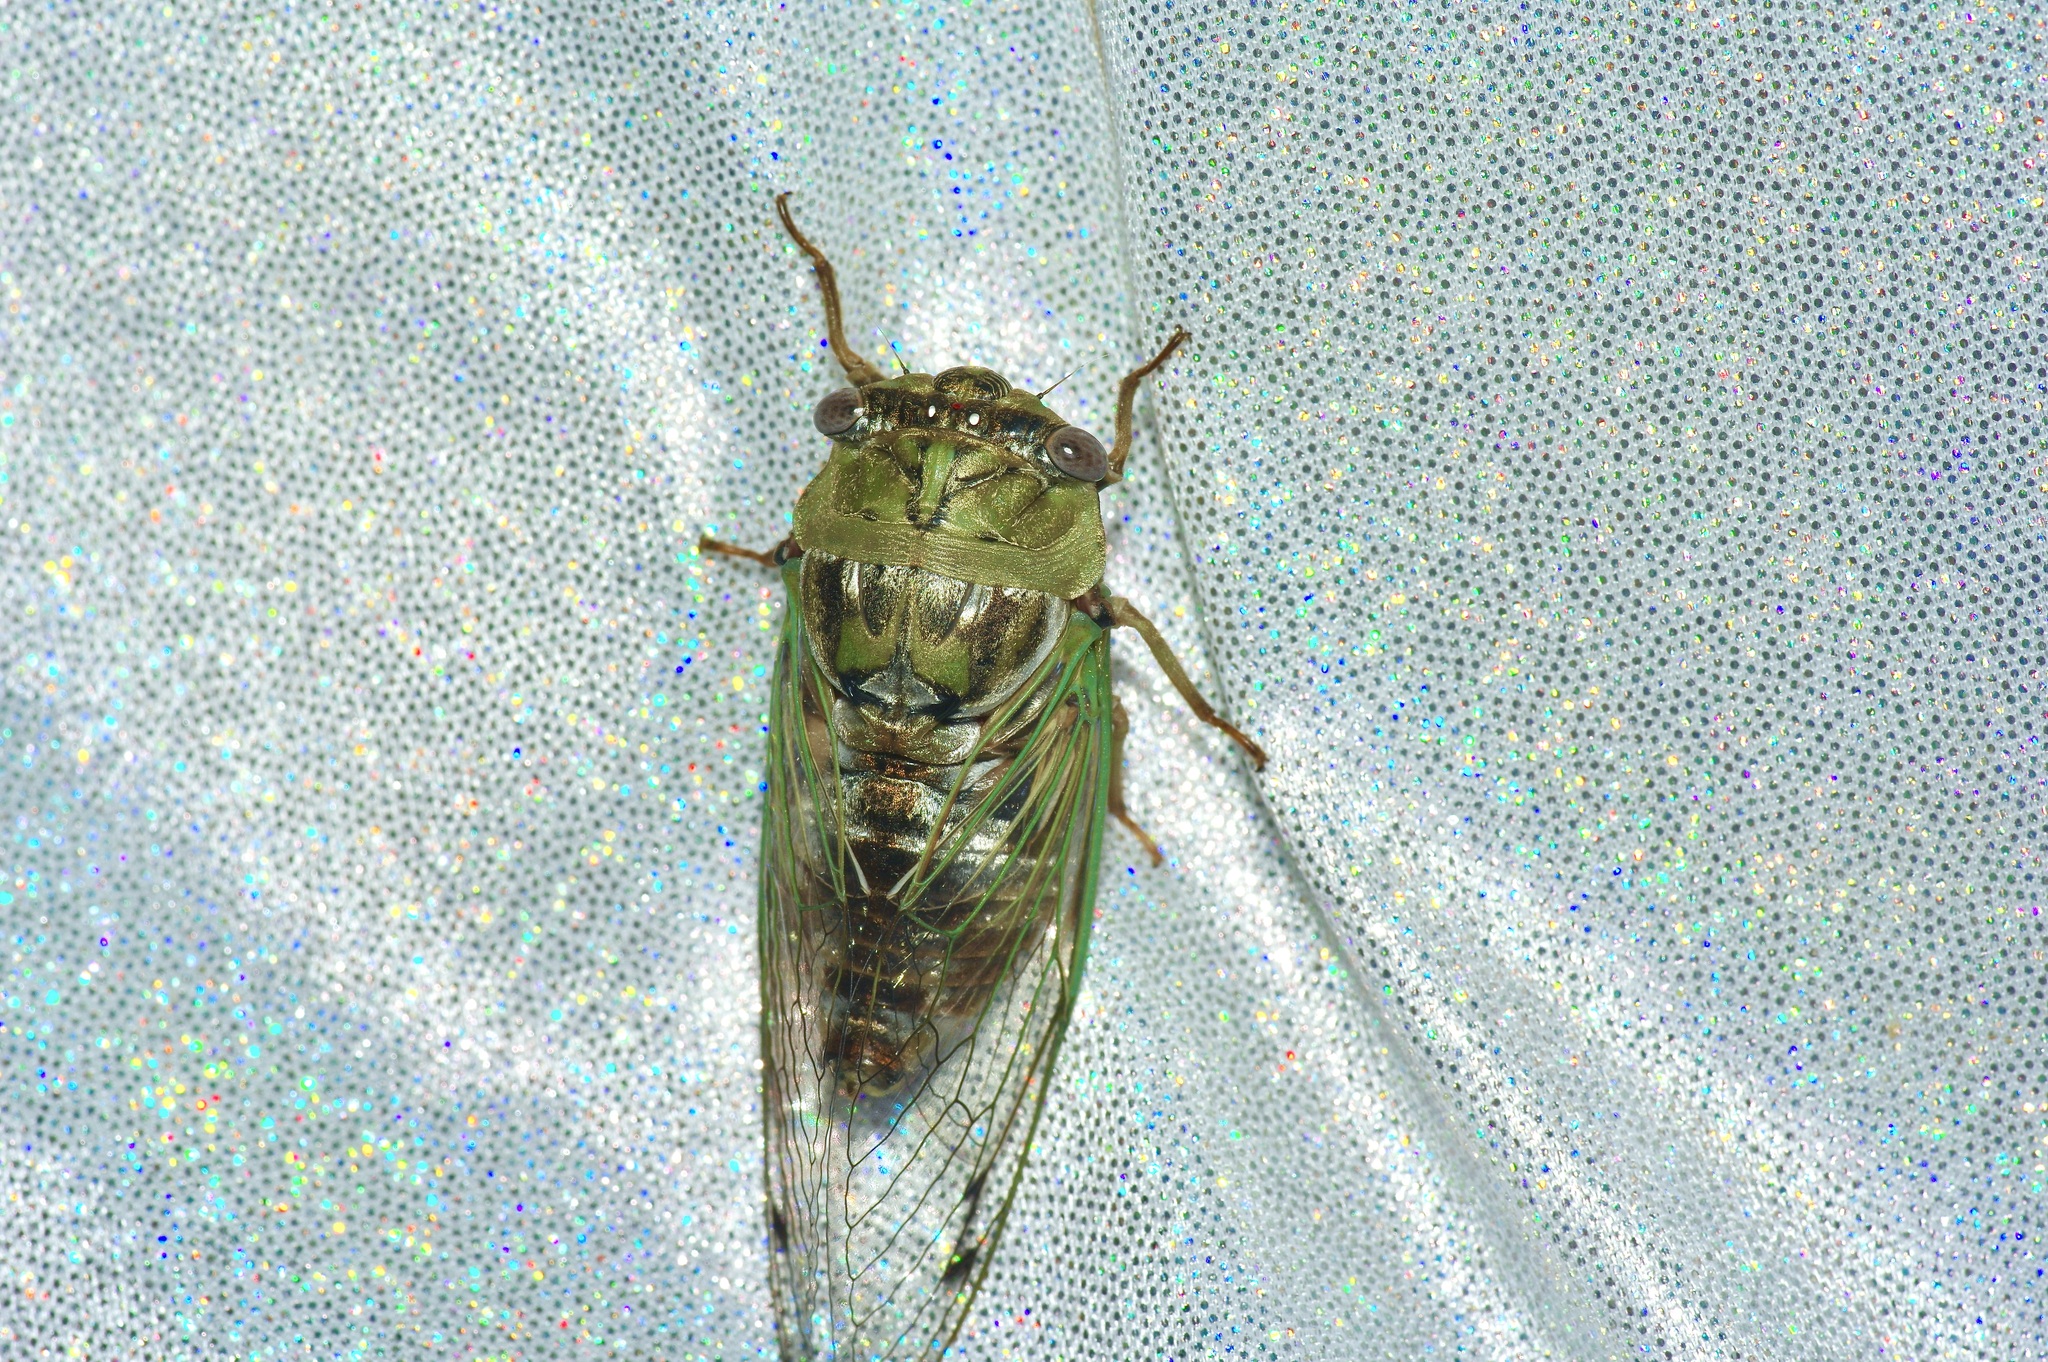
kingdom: Animalia
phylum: Arthropoda
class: Insecta
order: Hemiptera
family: Cicadidae
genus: Megatibicen
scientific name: Megatibicen resh
